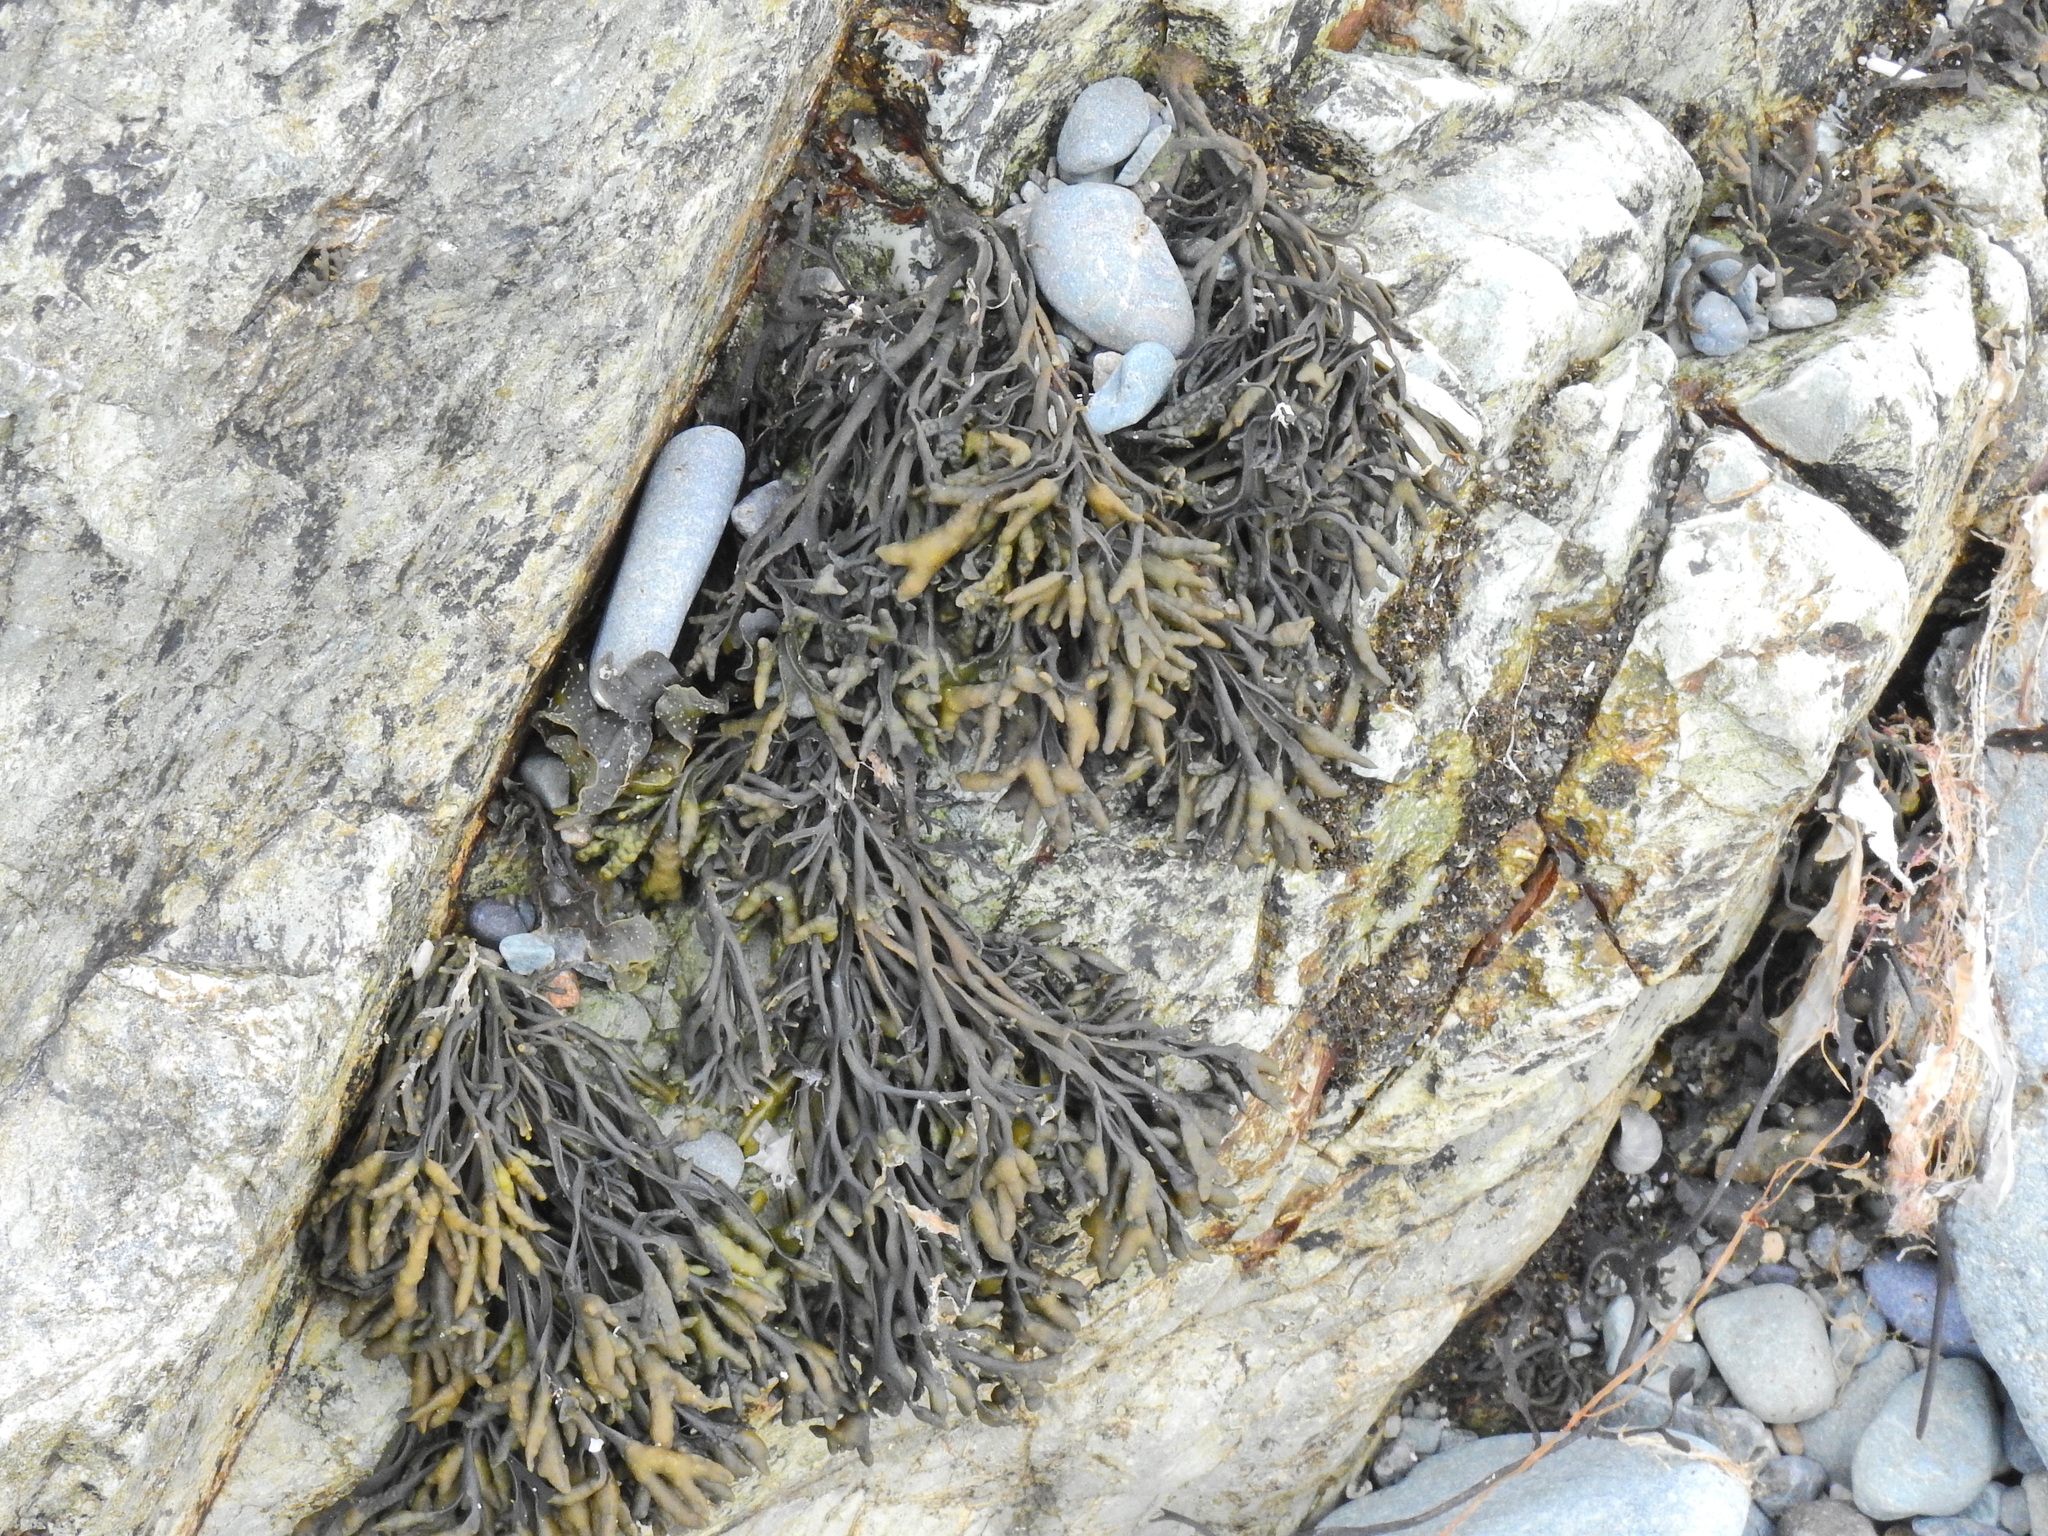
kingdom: Chromista
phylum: Ochrophyta
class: Phaeophyceae
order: Fucales
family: Fucaceae
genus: Pelvetia
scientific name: Pelvetia canaliculata
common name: Channelled wrack
